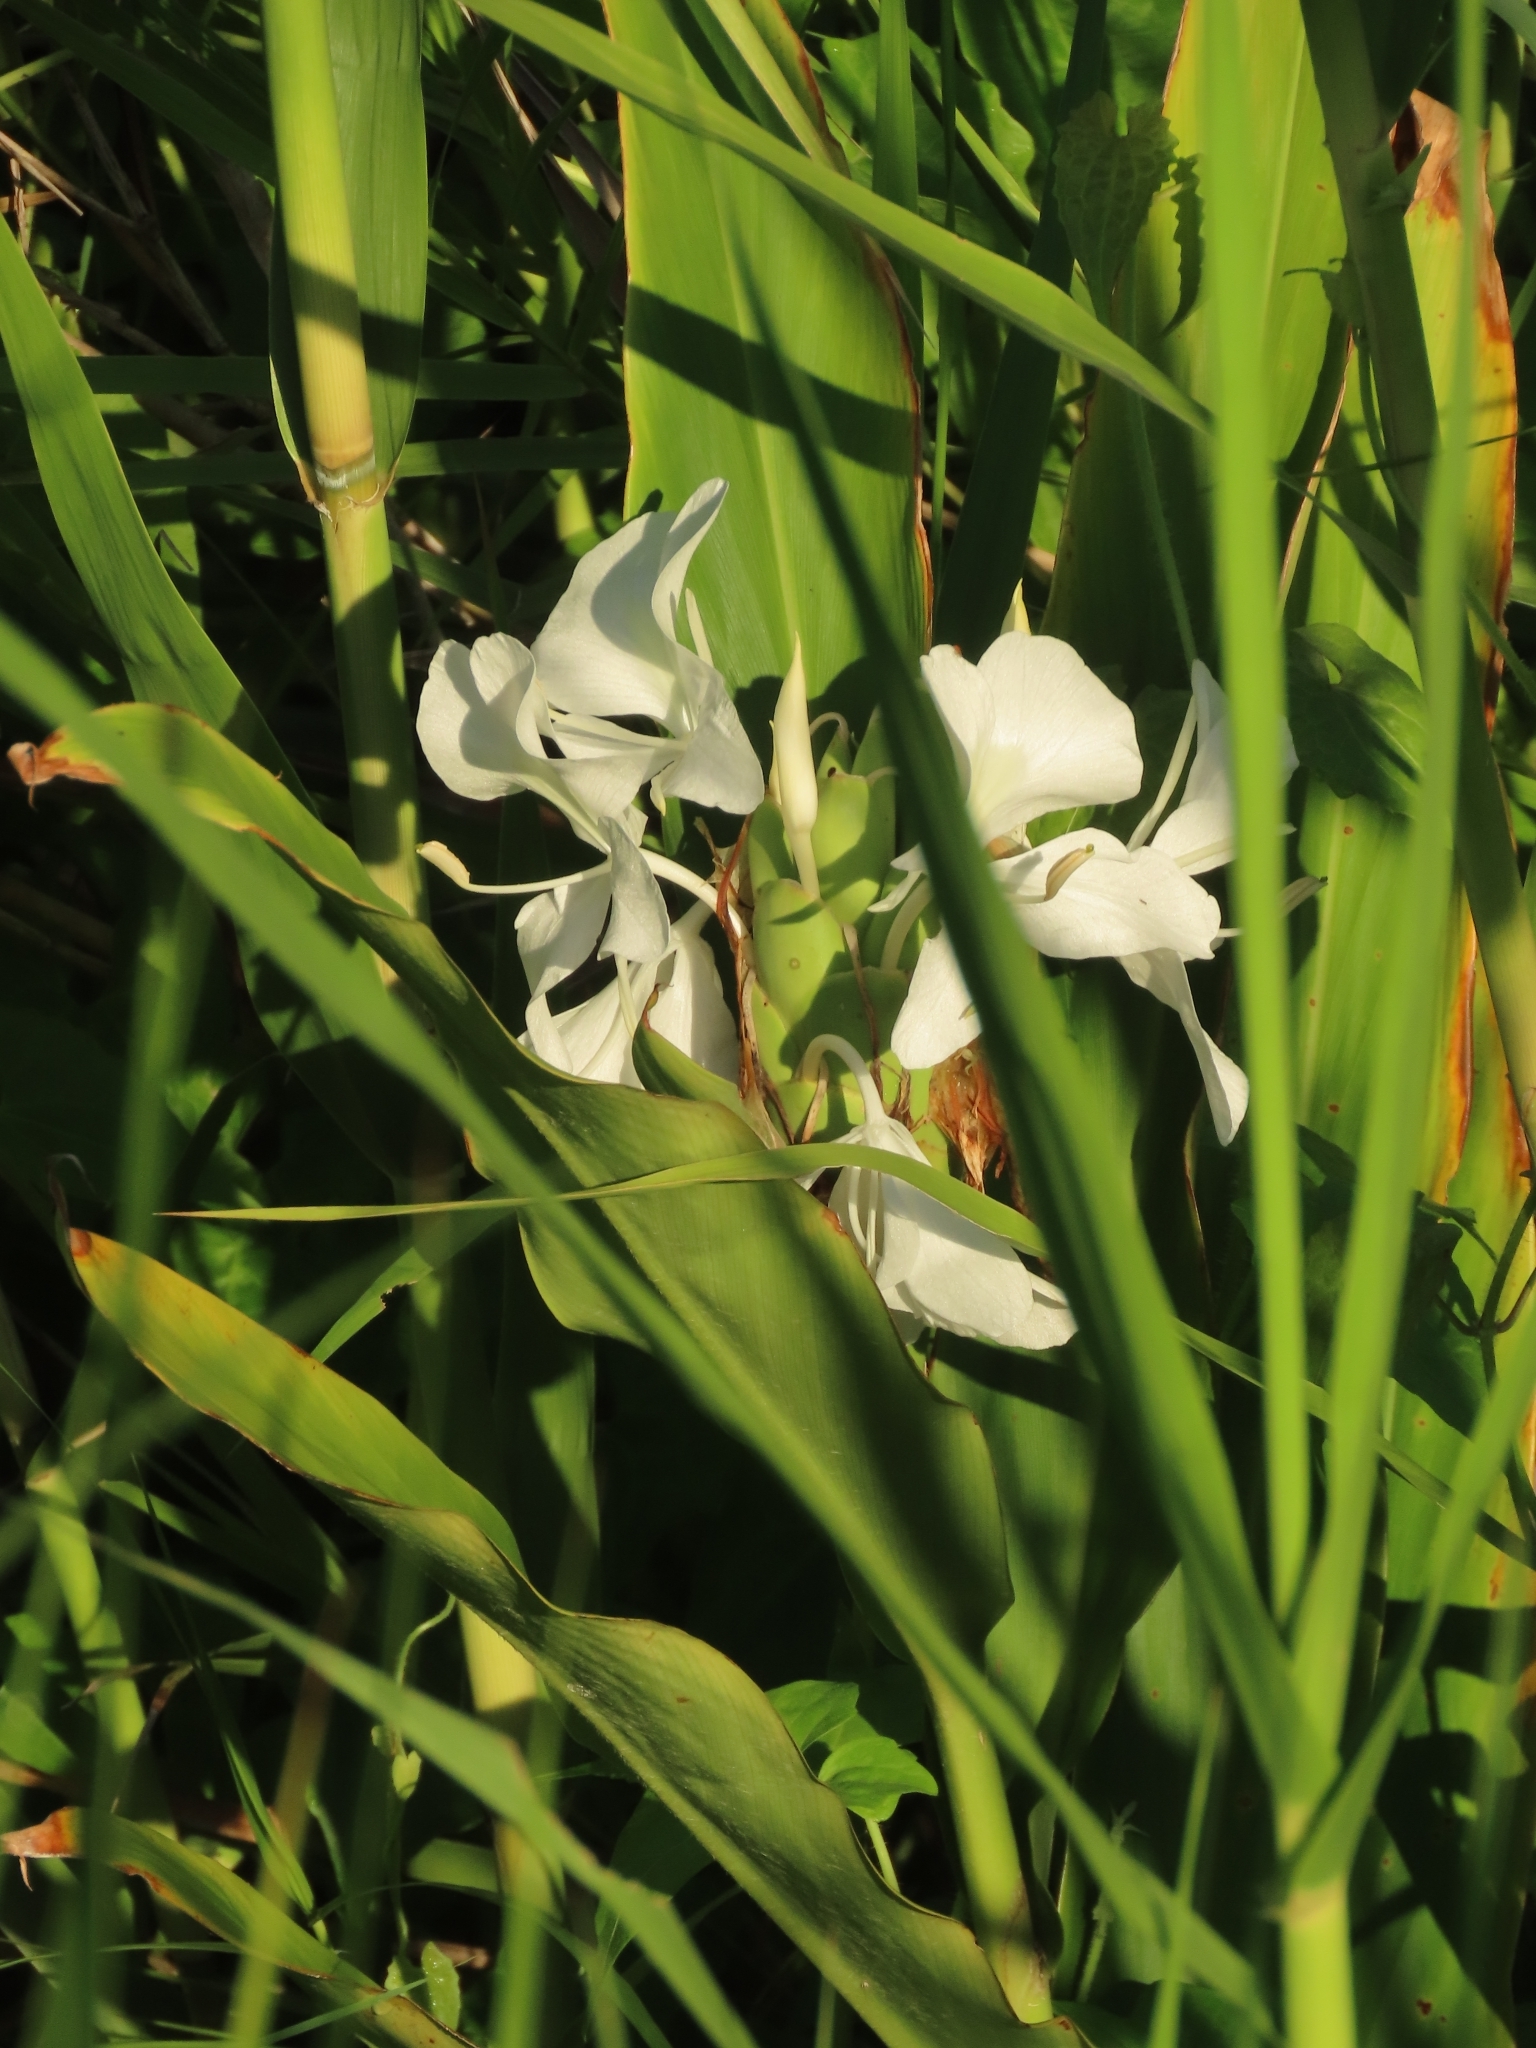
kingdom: Plantae
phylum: Tracheophyta
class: Liliopsida
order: Zingiberales
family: Zingiberaceae
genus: Hedychium
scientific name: Hedychium coronarium
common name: White garland-lily
